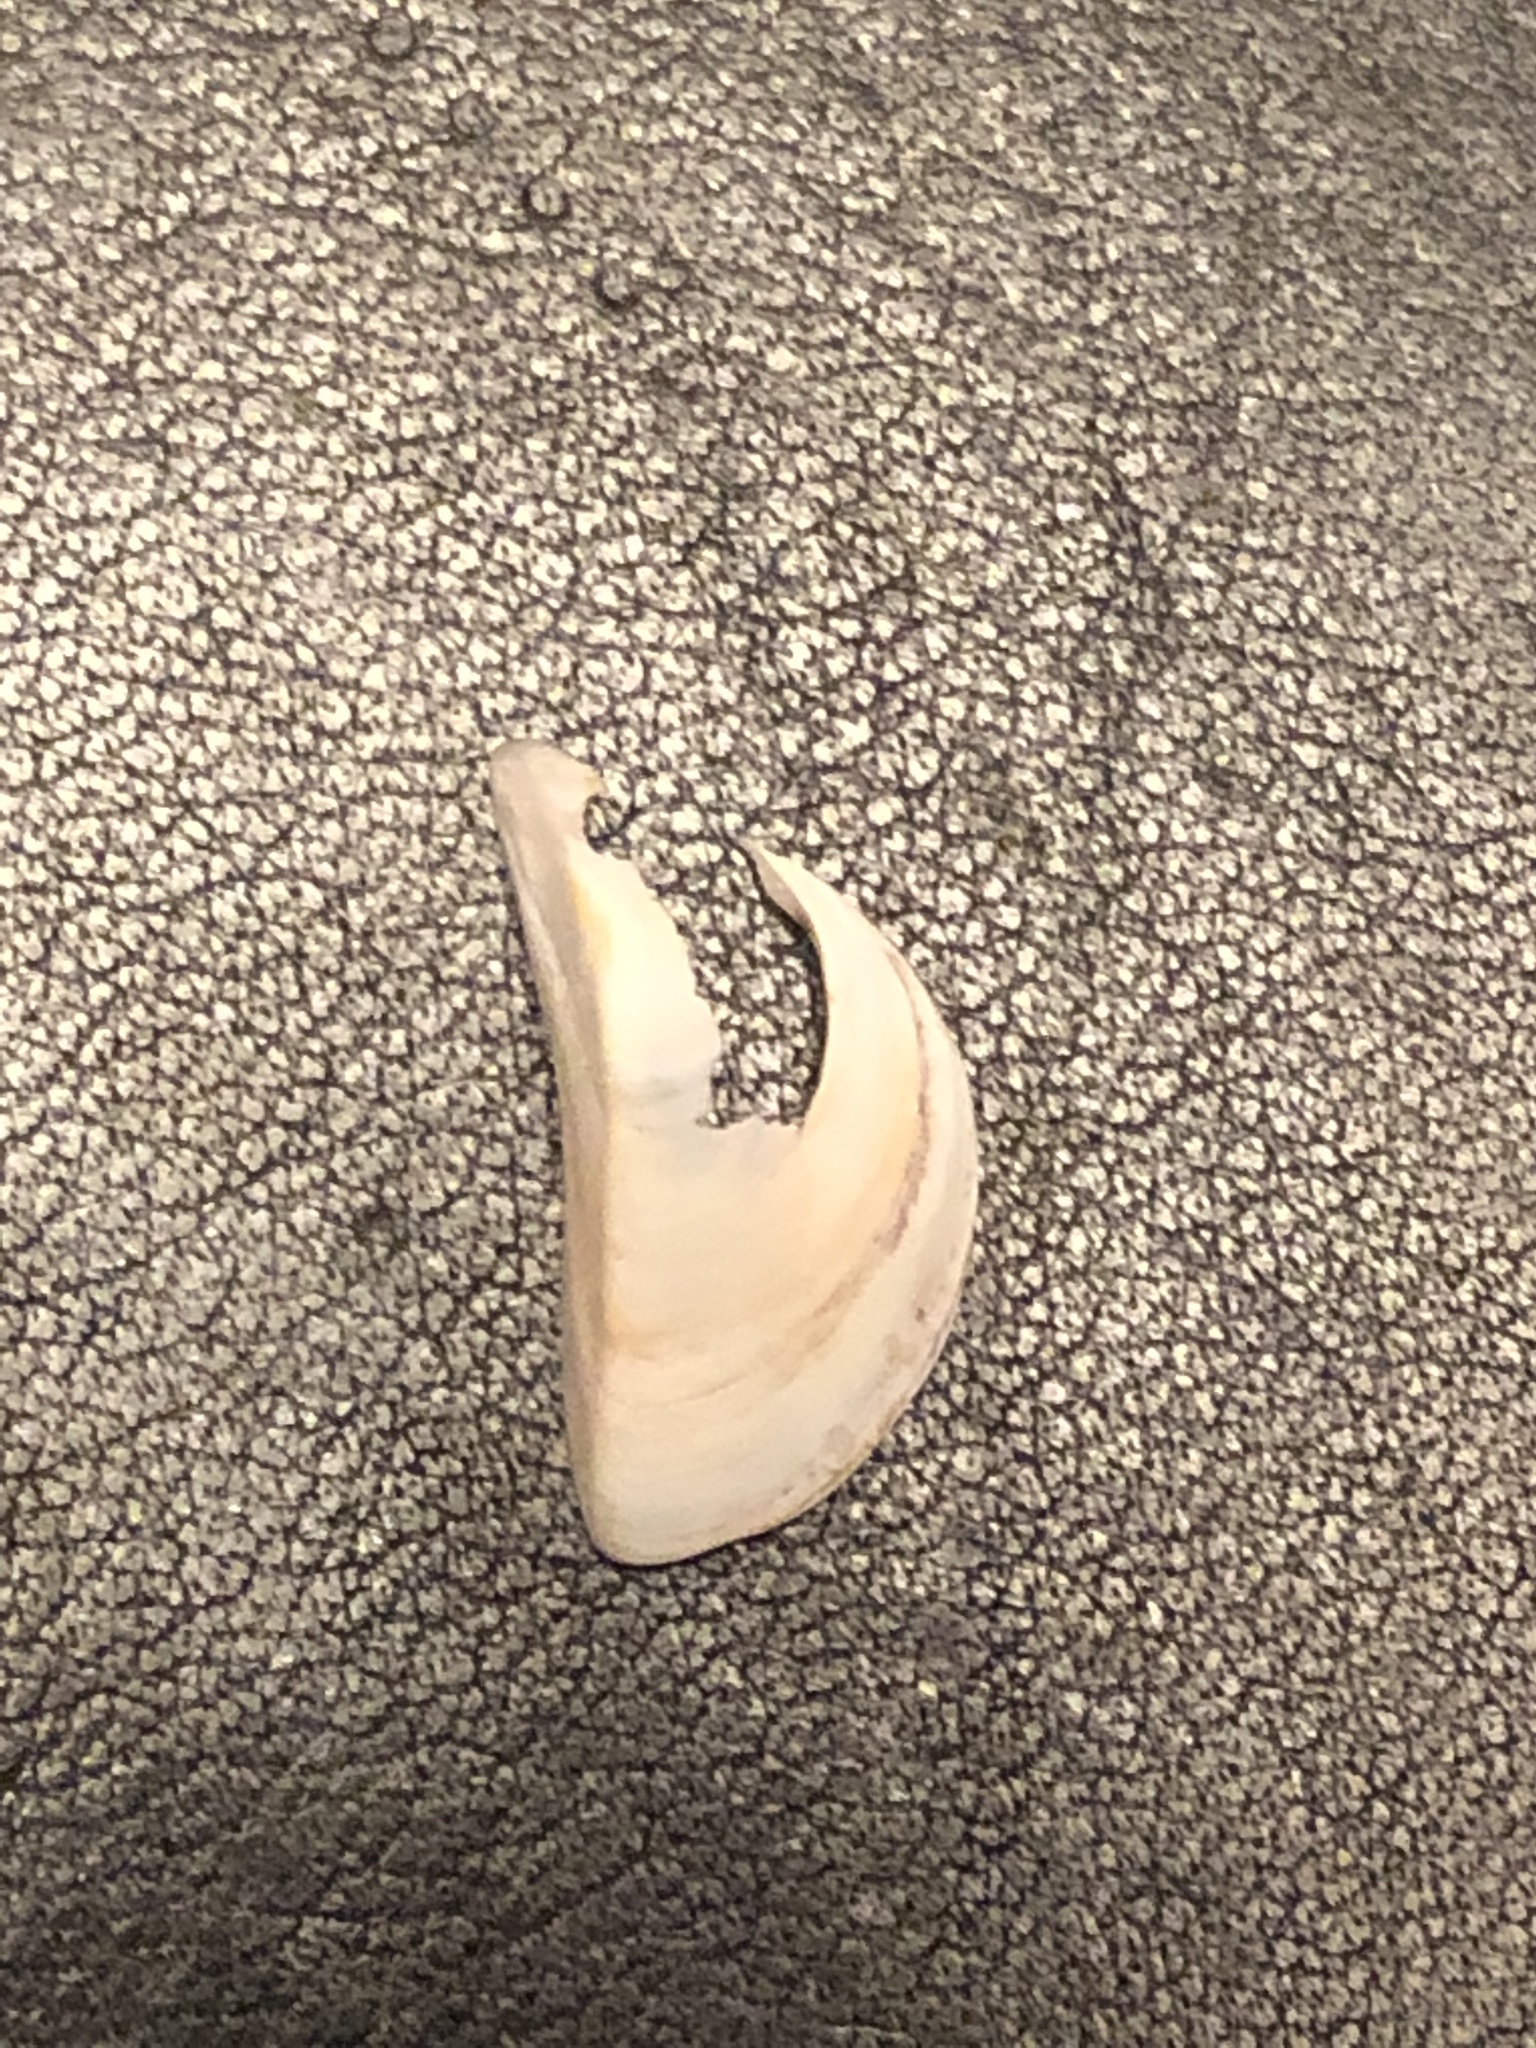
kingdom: Animalia
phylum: Mollusca
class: Bivalvia
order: Myida
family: Dreissenidae
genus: Dreissena
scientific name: Dreissena polymorpha
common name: Zebra mussel
